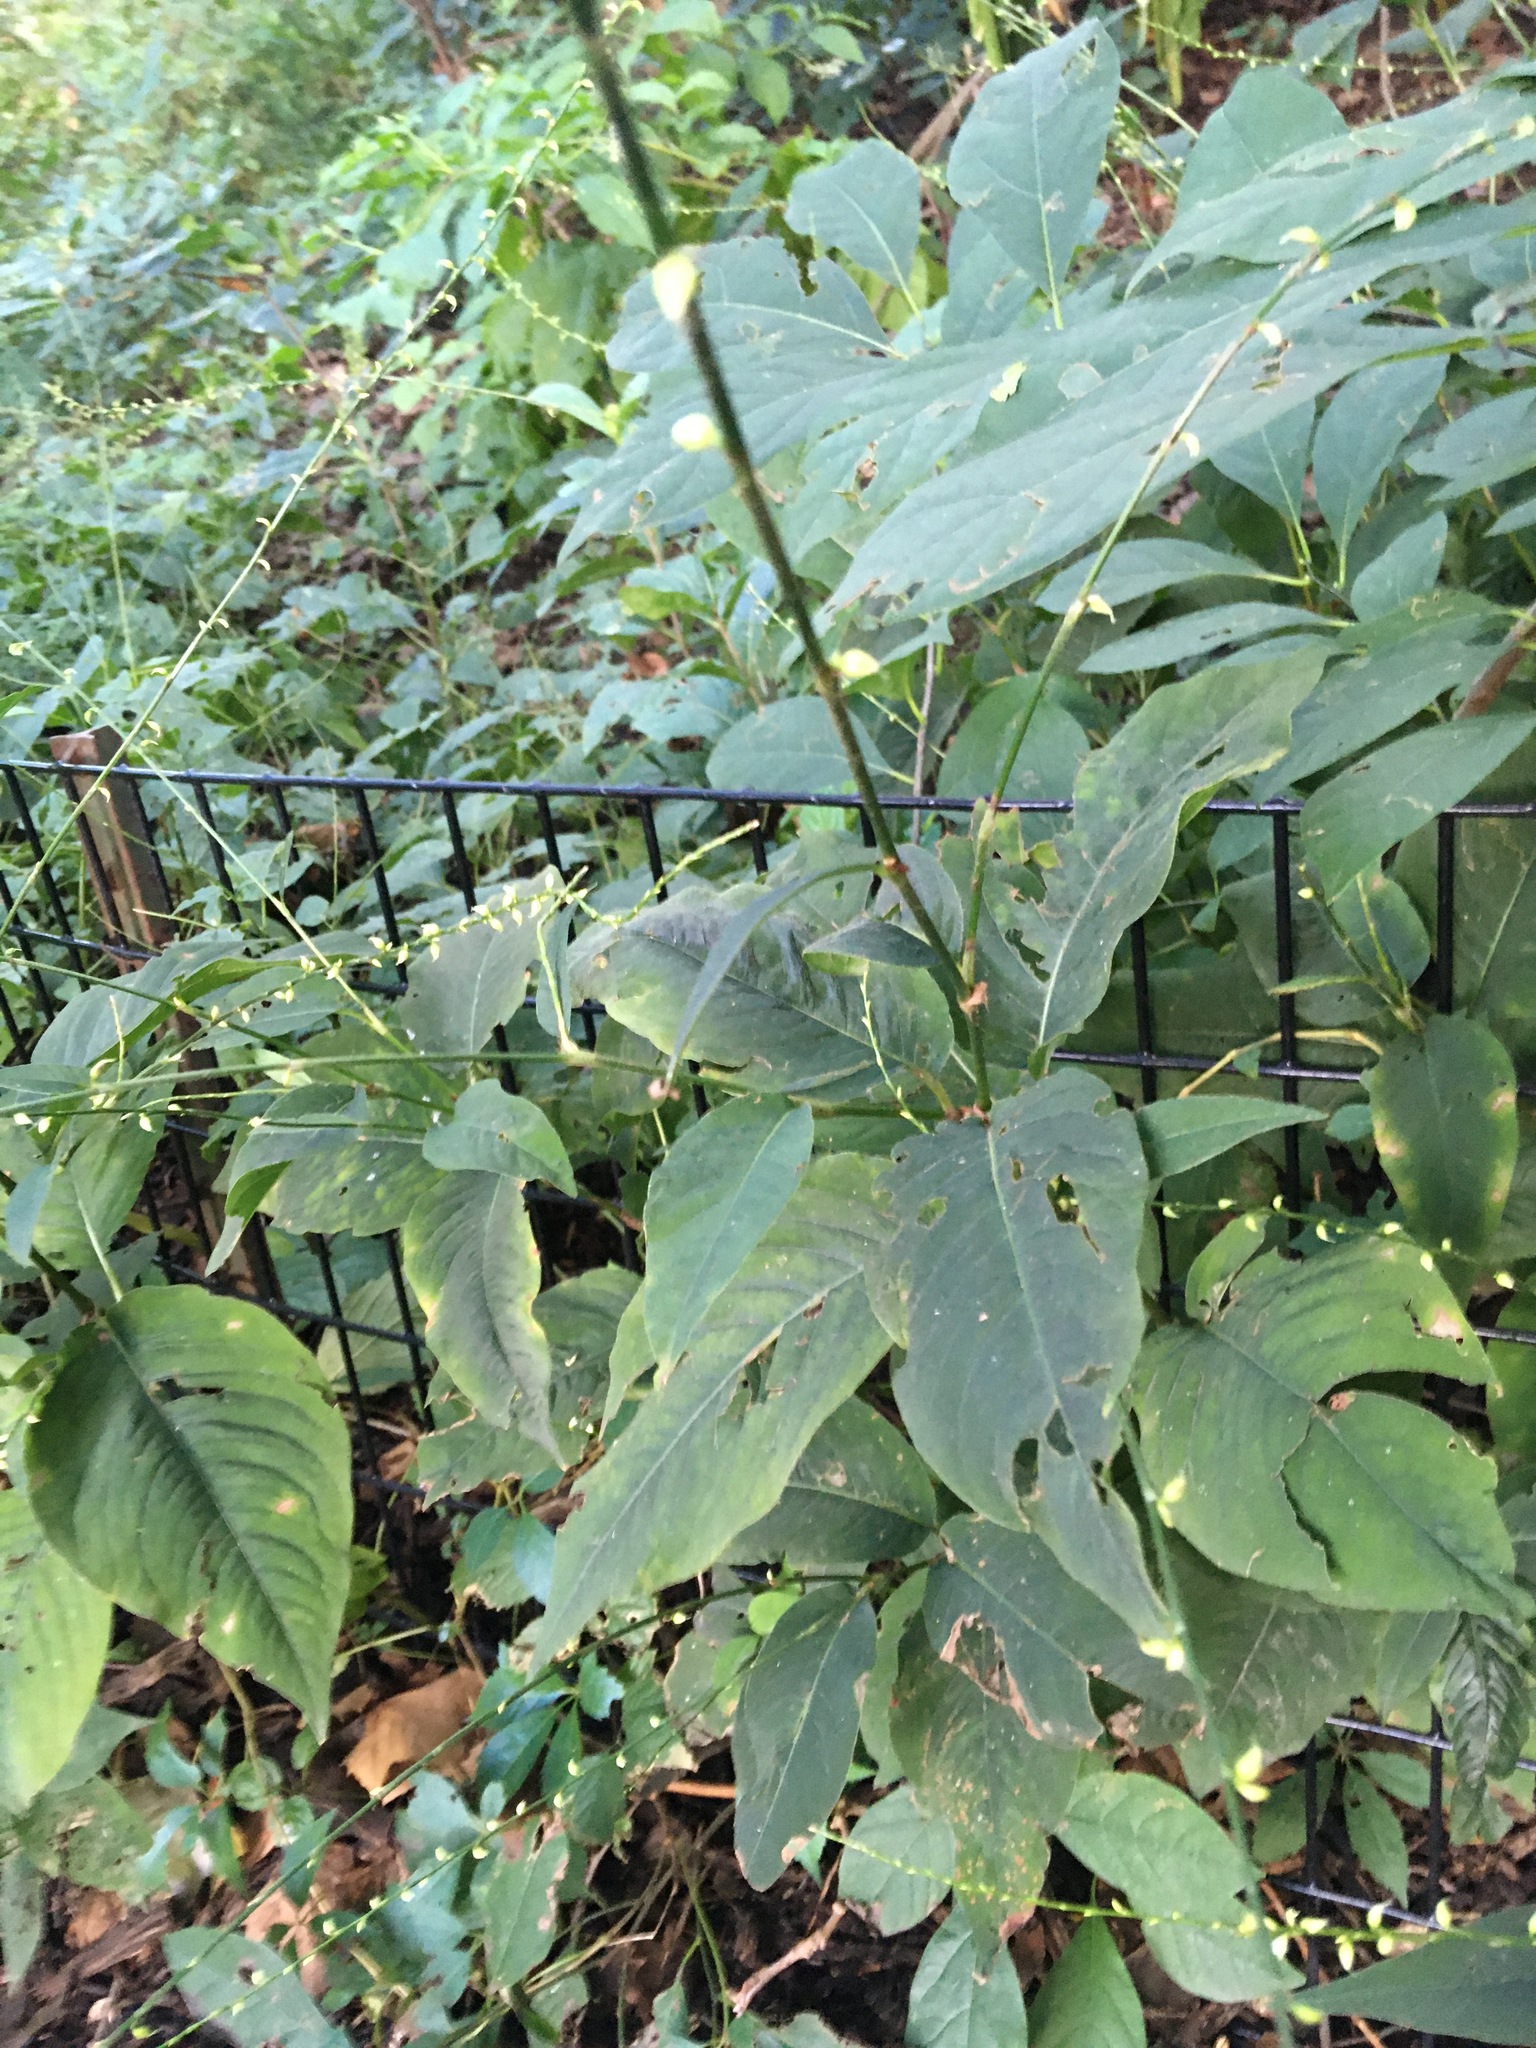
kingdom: Plantae
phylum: Tracheophyta
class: Magnoliopsida
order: Caryophyllales
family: Polygonaceae
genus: Persicaria
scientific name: Persicaria virginiana
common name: Jumpseed
